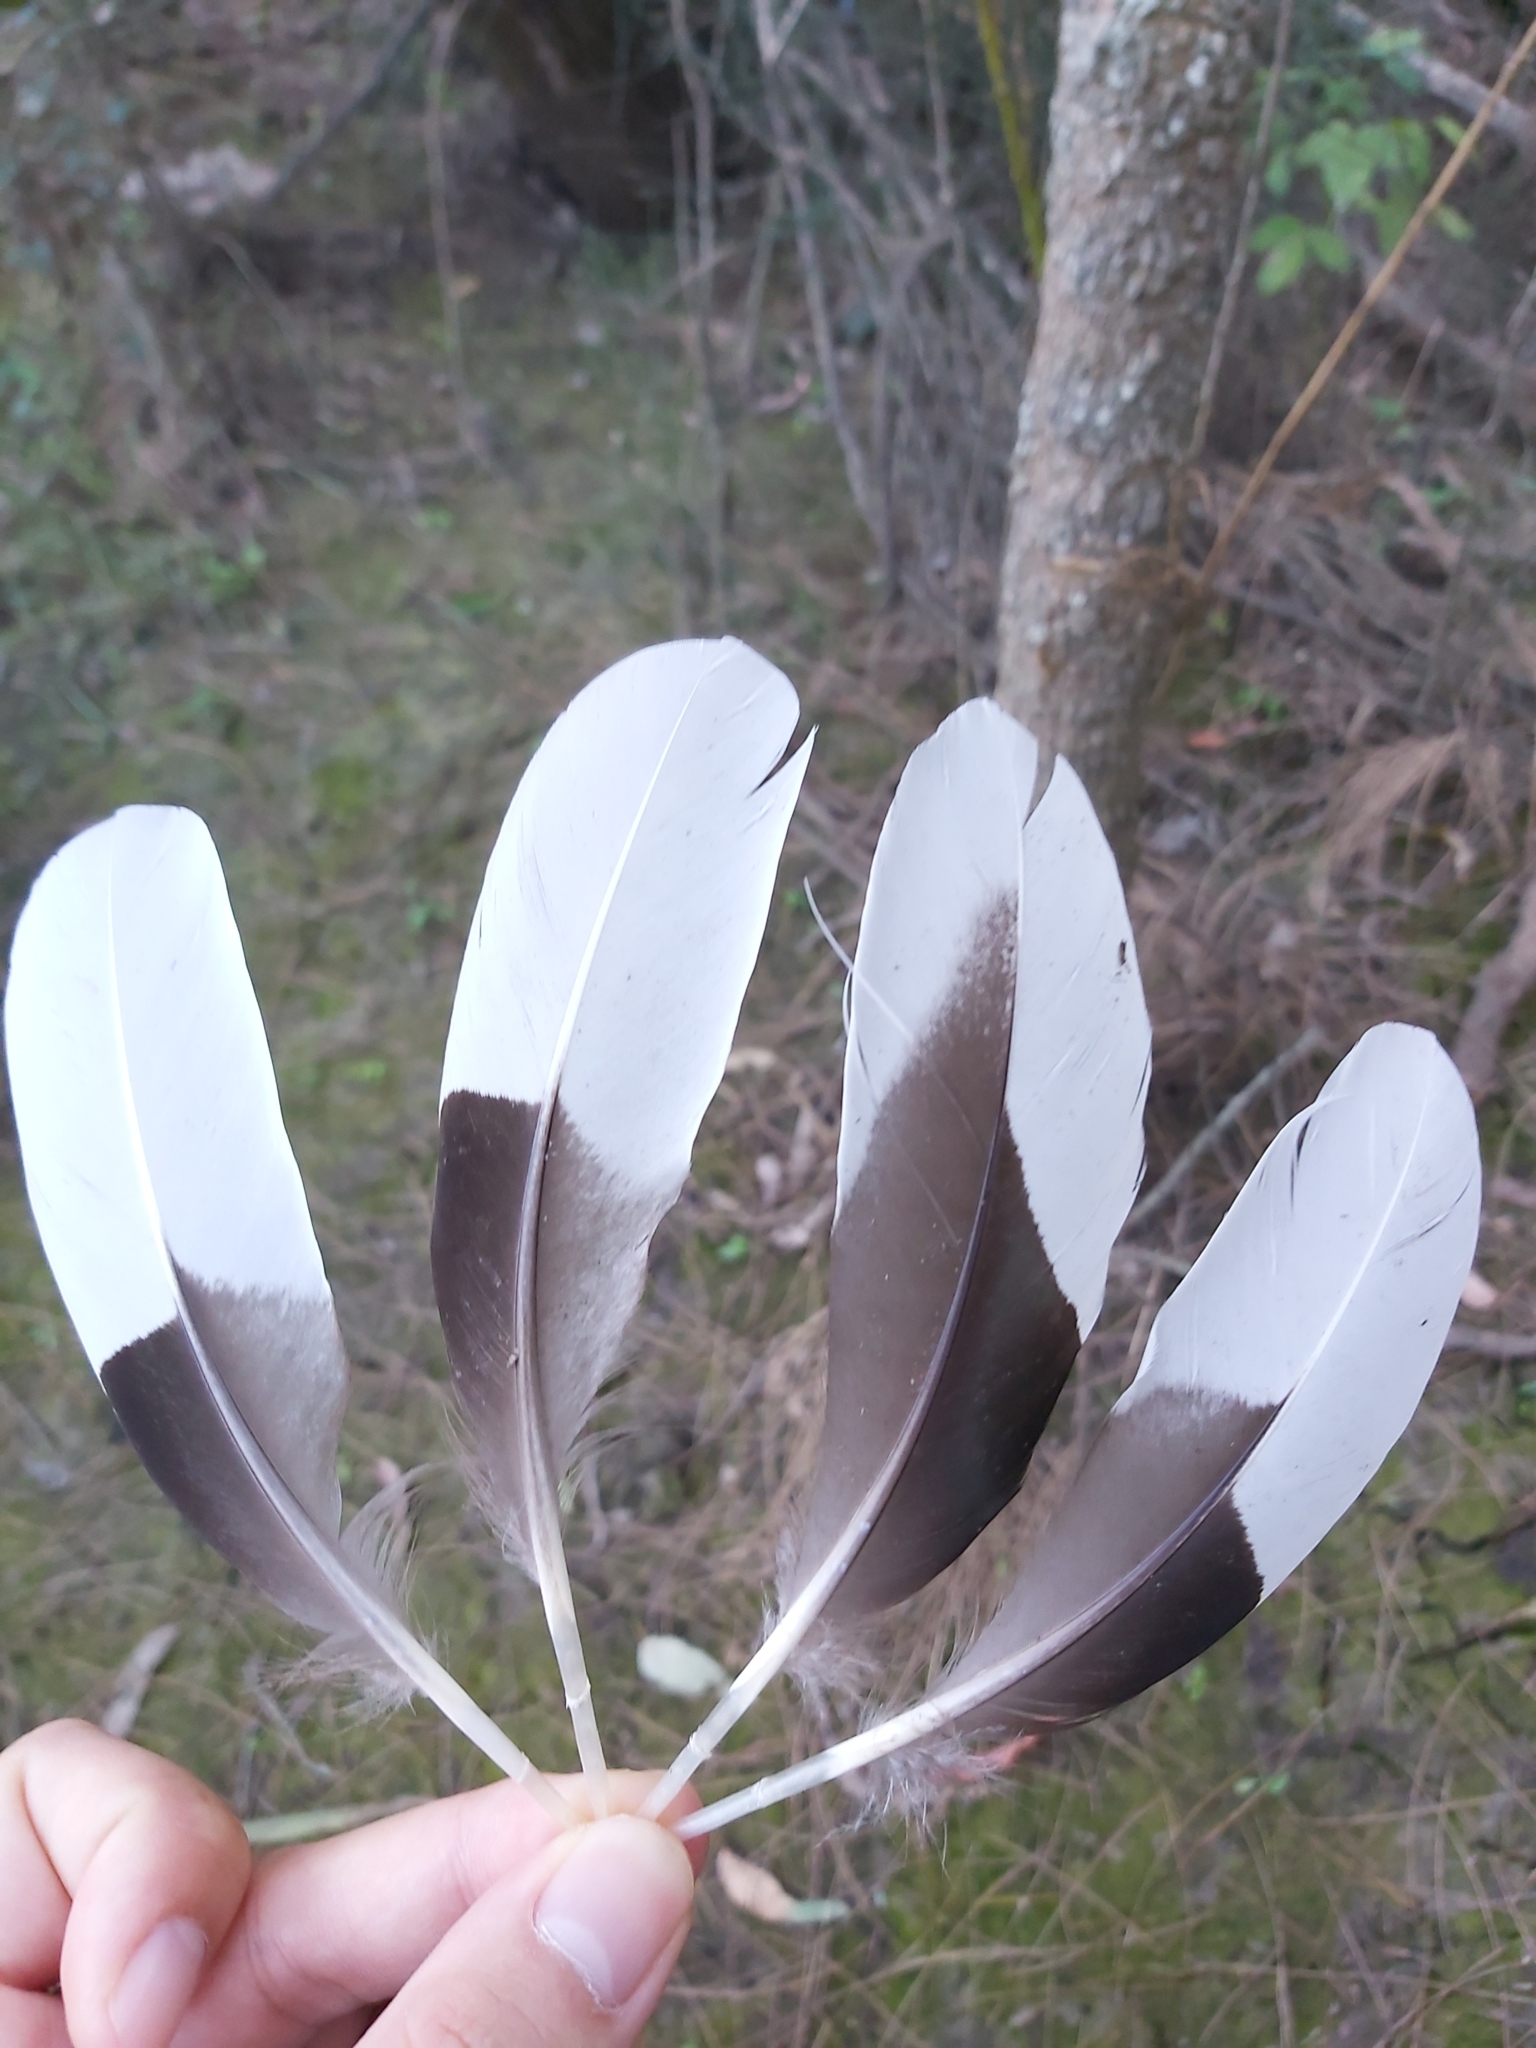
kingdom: Animalia
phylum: Chordata
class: Aves
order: Anseriformes
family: Anatidae
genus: Chenonetta
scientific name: Chenonetta jubata
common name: Maned duck
